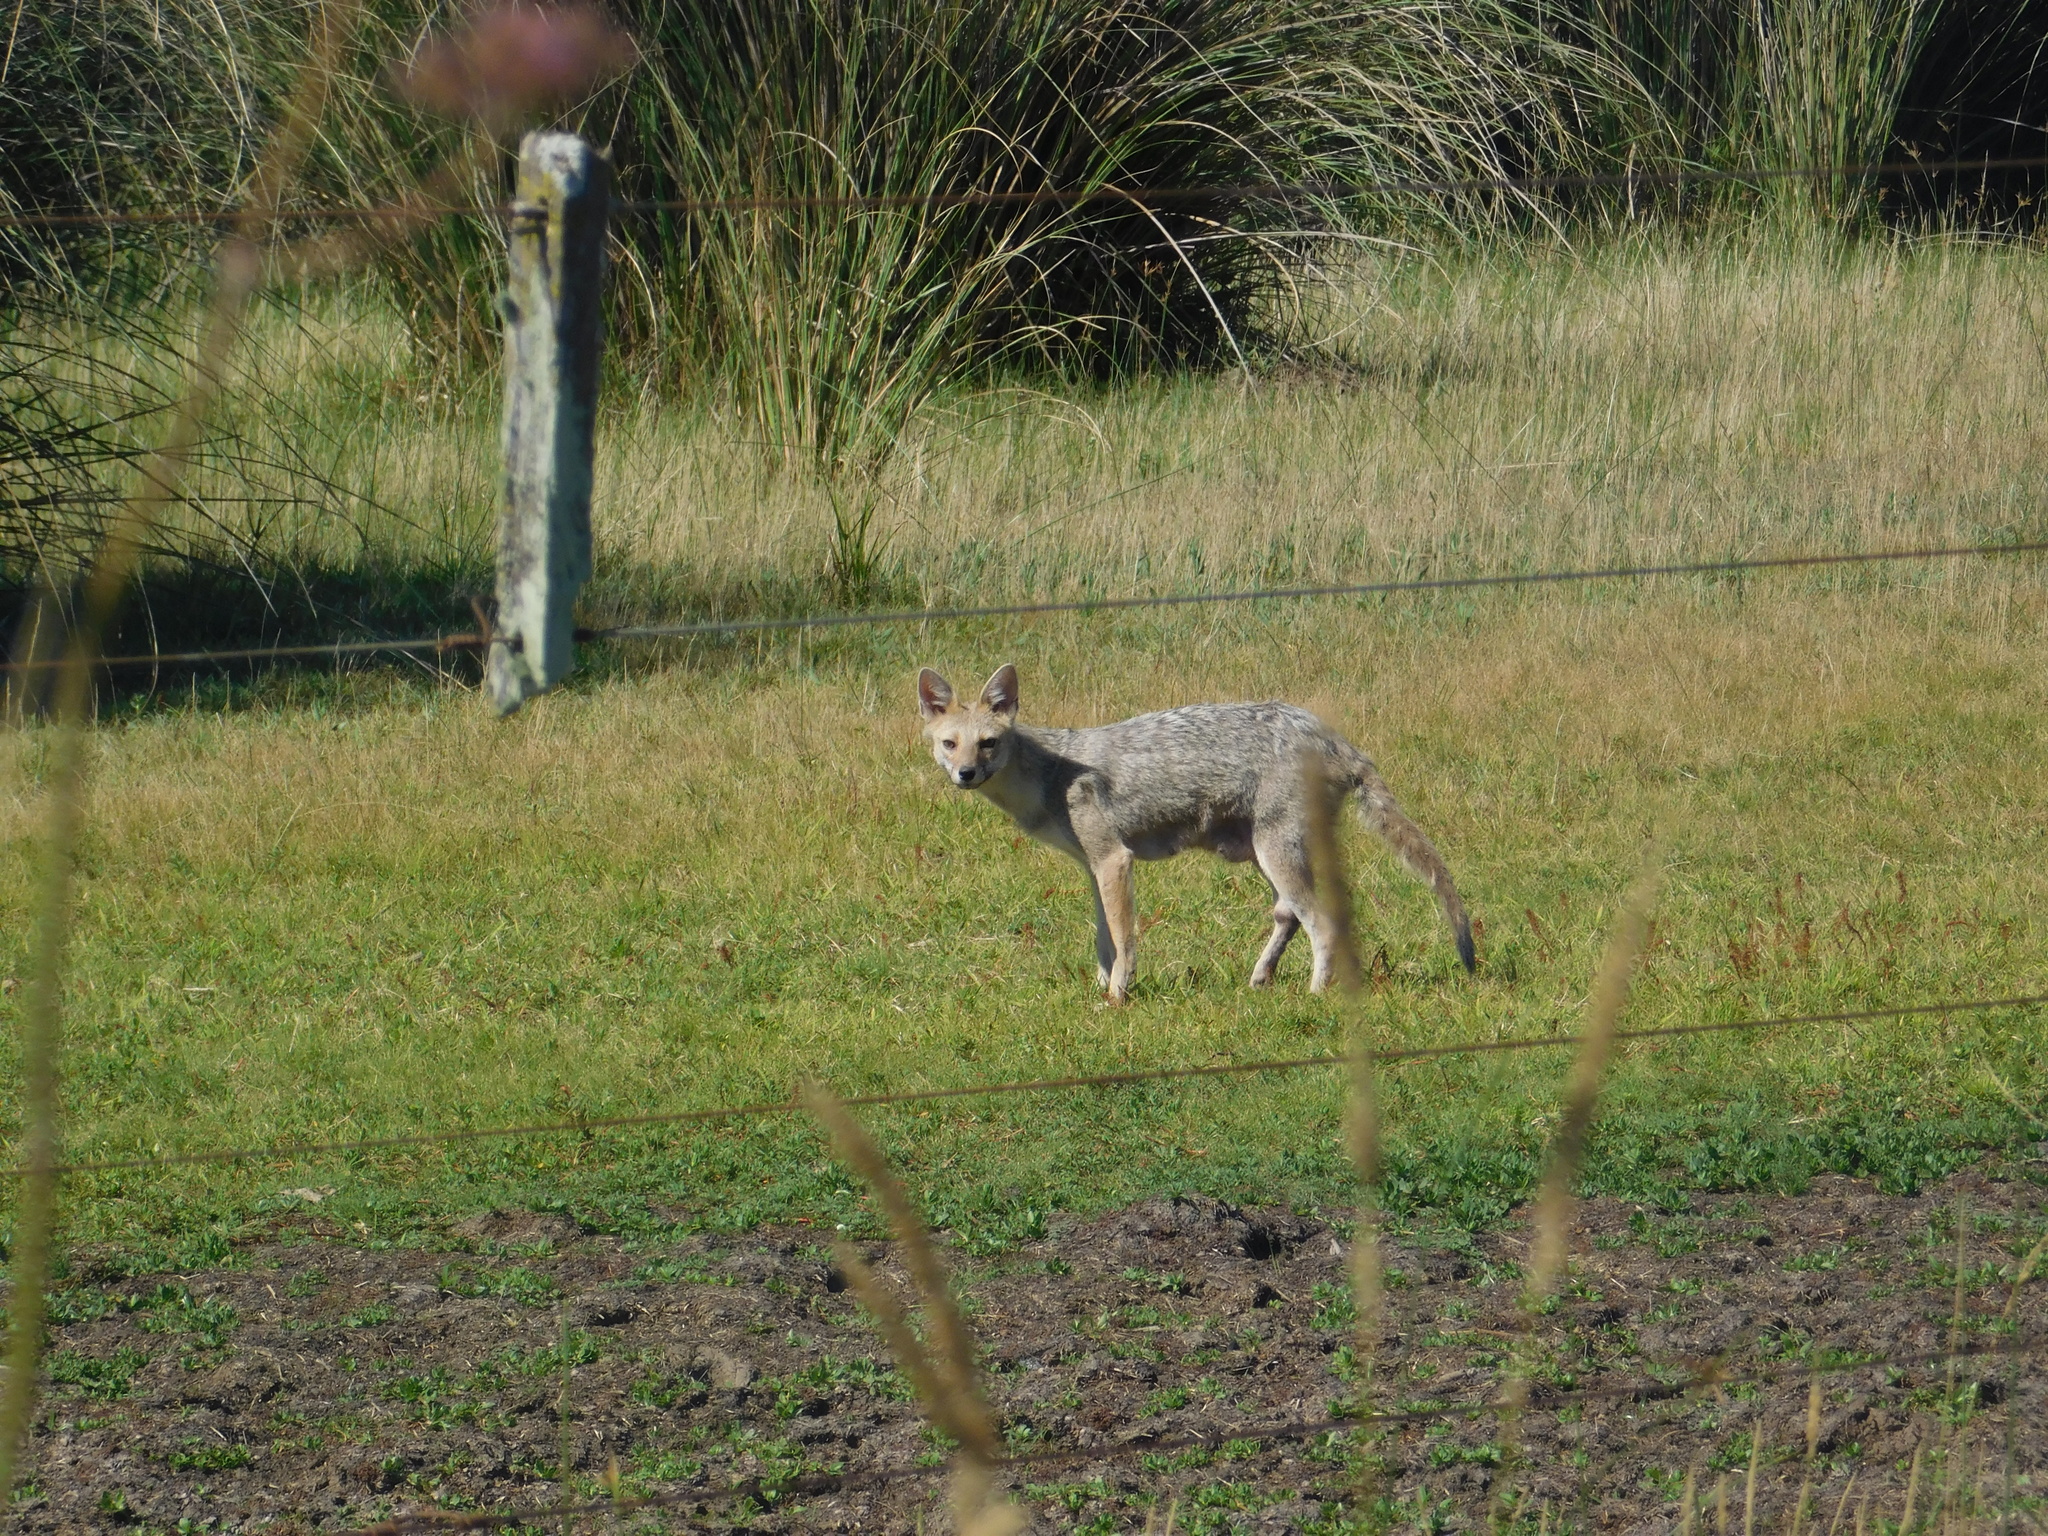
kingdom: Animalia
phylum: Chordata
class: Mammalia
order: Carnivora
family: Canidae
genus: Lycalopex
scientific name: Lycalopex gymnocercus
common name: Pampas fox
